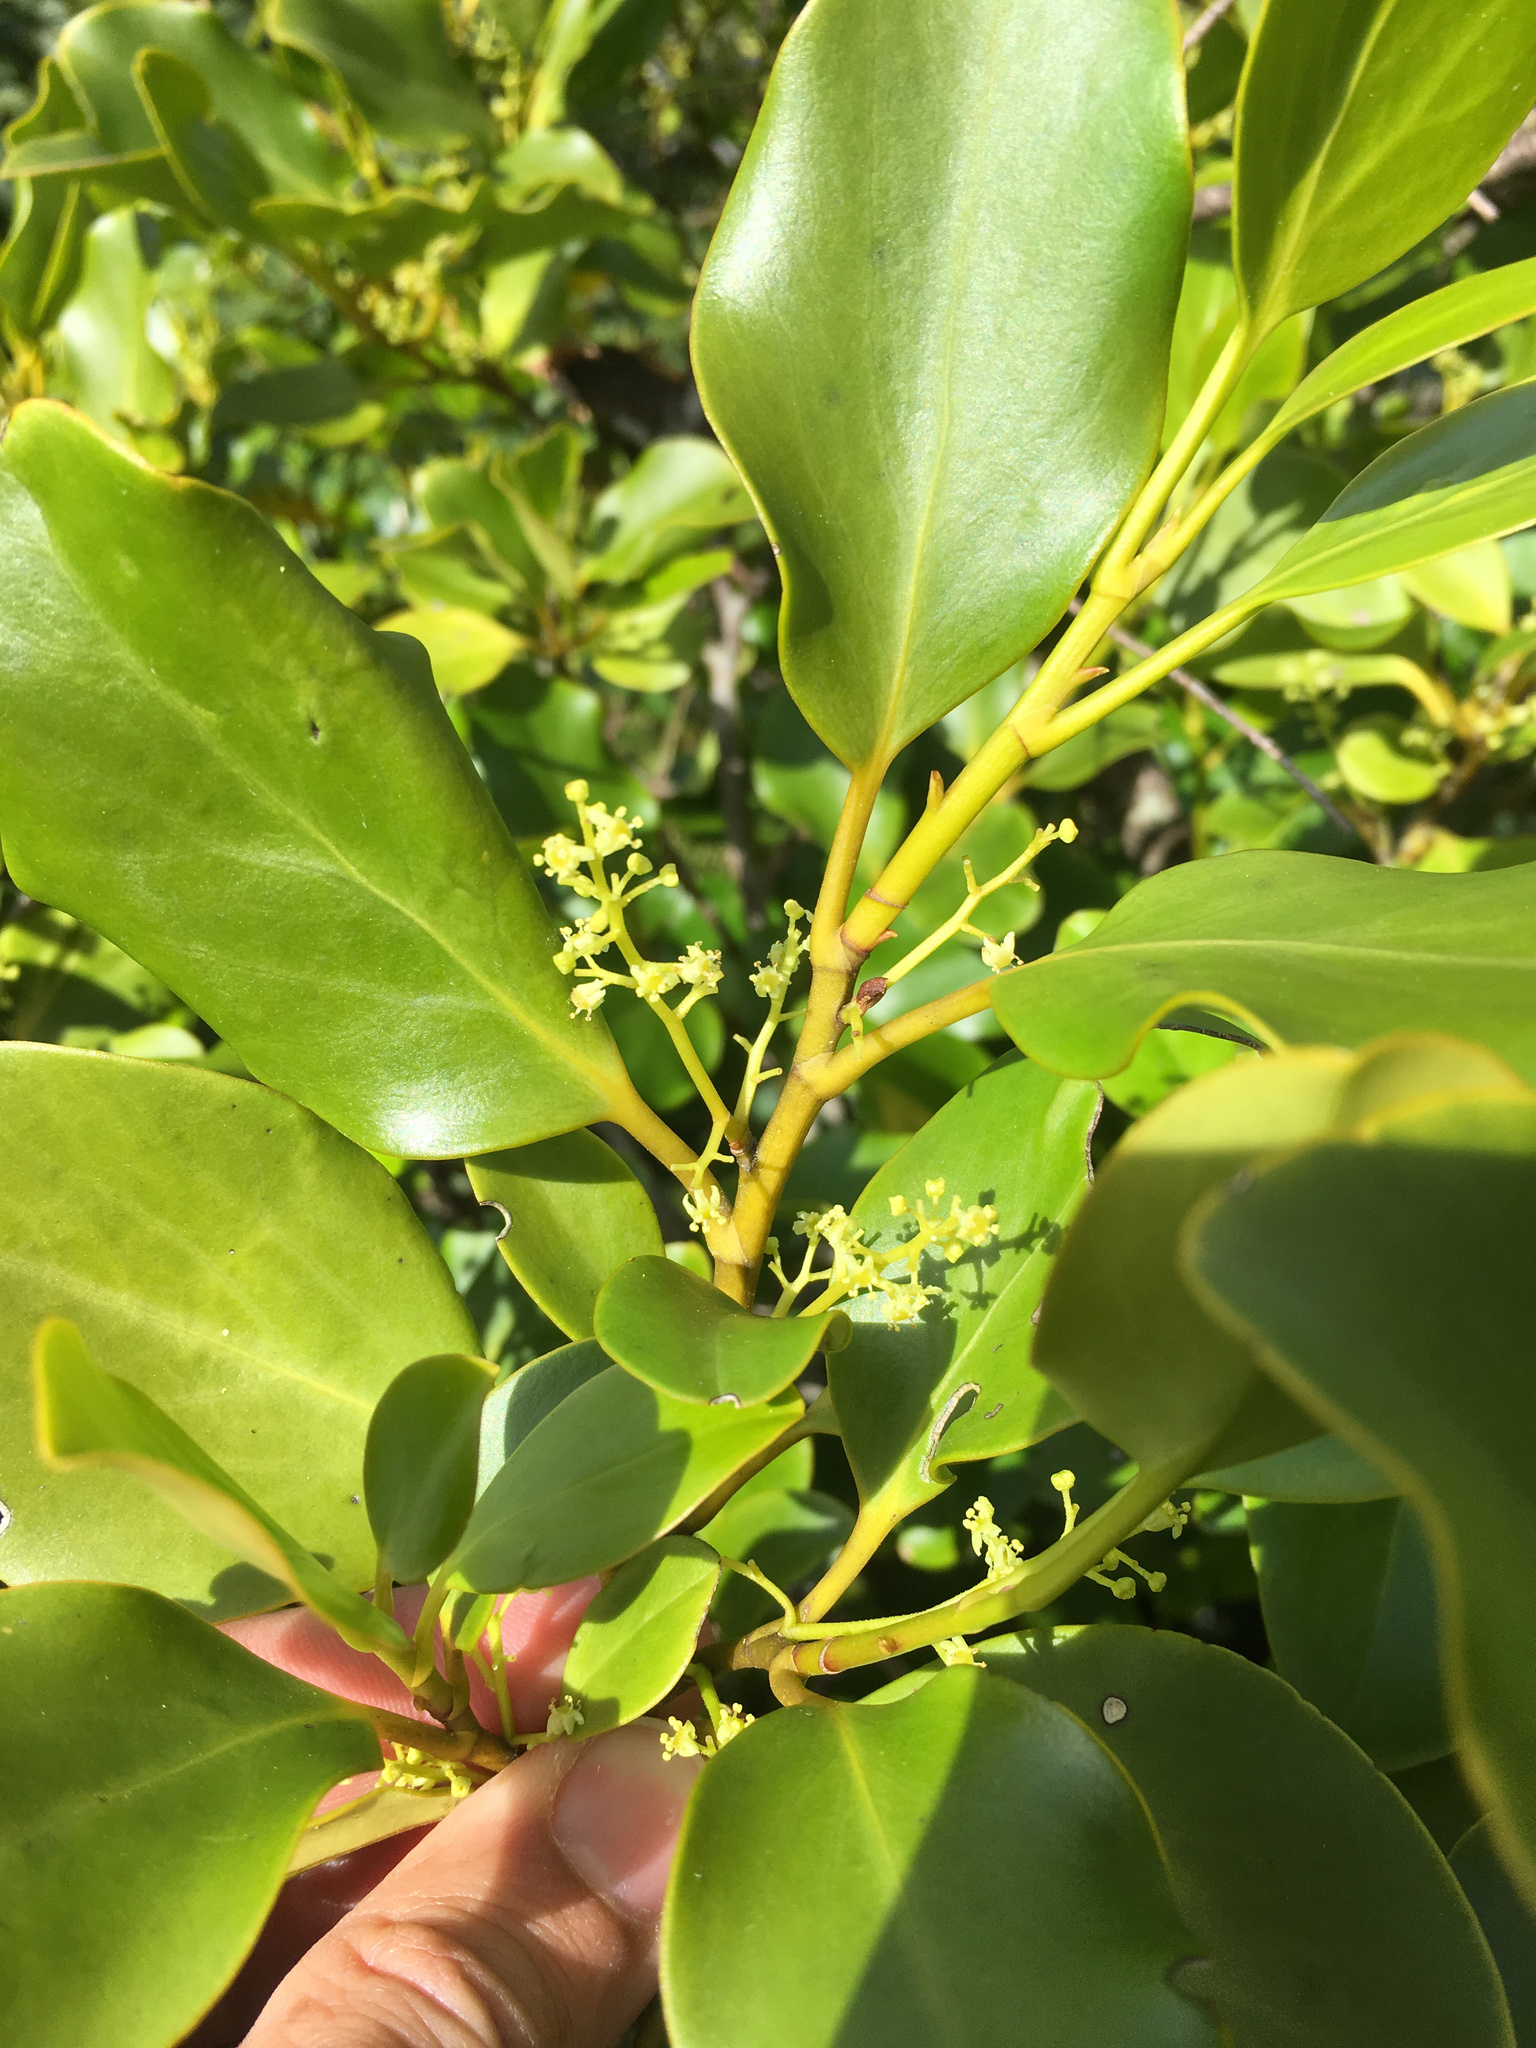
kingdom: Plantae
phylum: Tracheophyta
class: Magnoliopsida
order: Apiales
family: Griseliniaceae
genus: Griselinia
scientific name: Griselinia littoralis
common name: New zealand broadleaf
